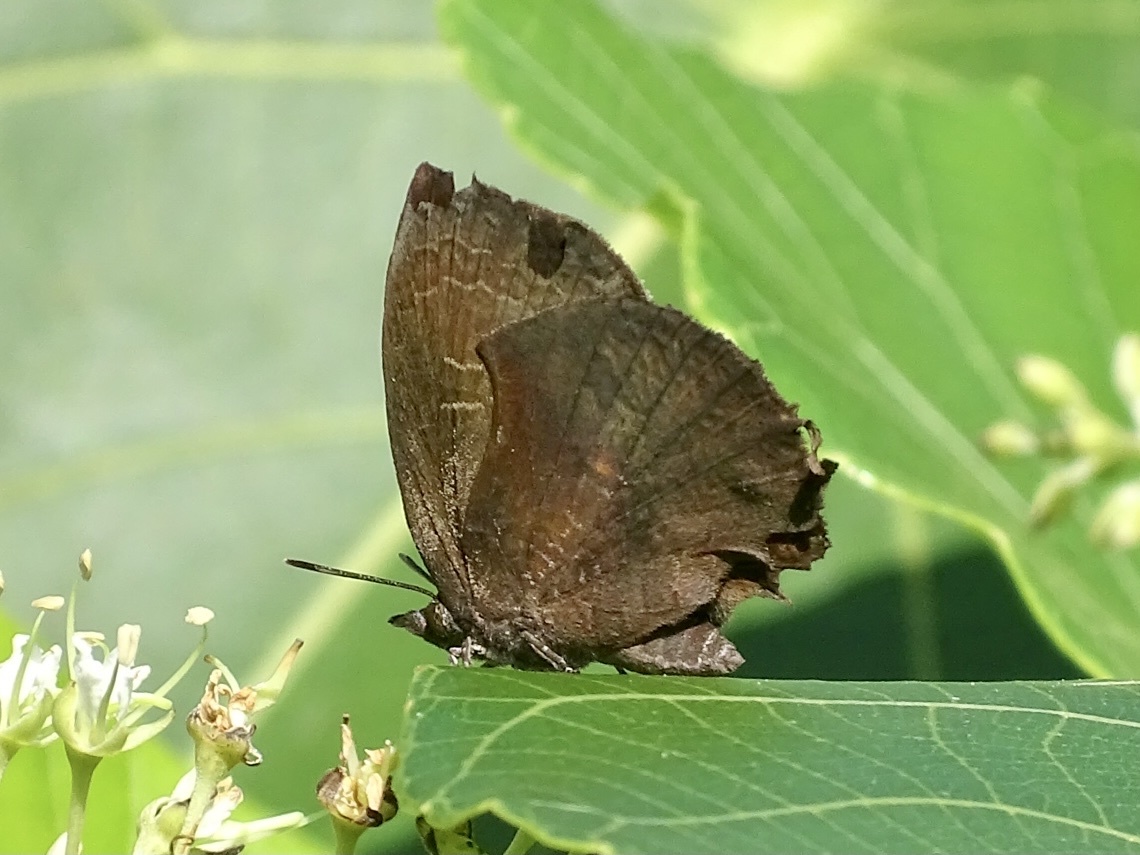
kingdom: Animalia
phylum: Arthropoda
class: Insecta
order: Lepidoptera
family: Lycaenidae
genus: Mahathala
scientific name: Mahathala ameria
